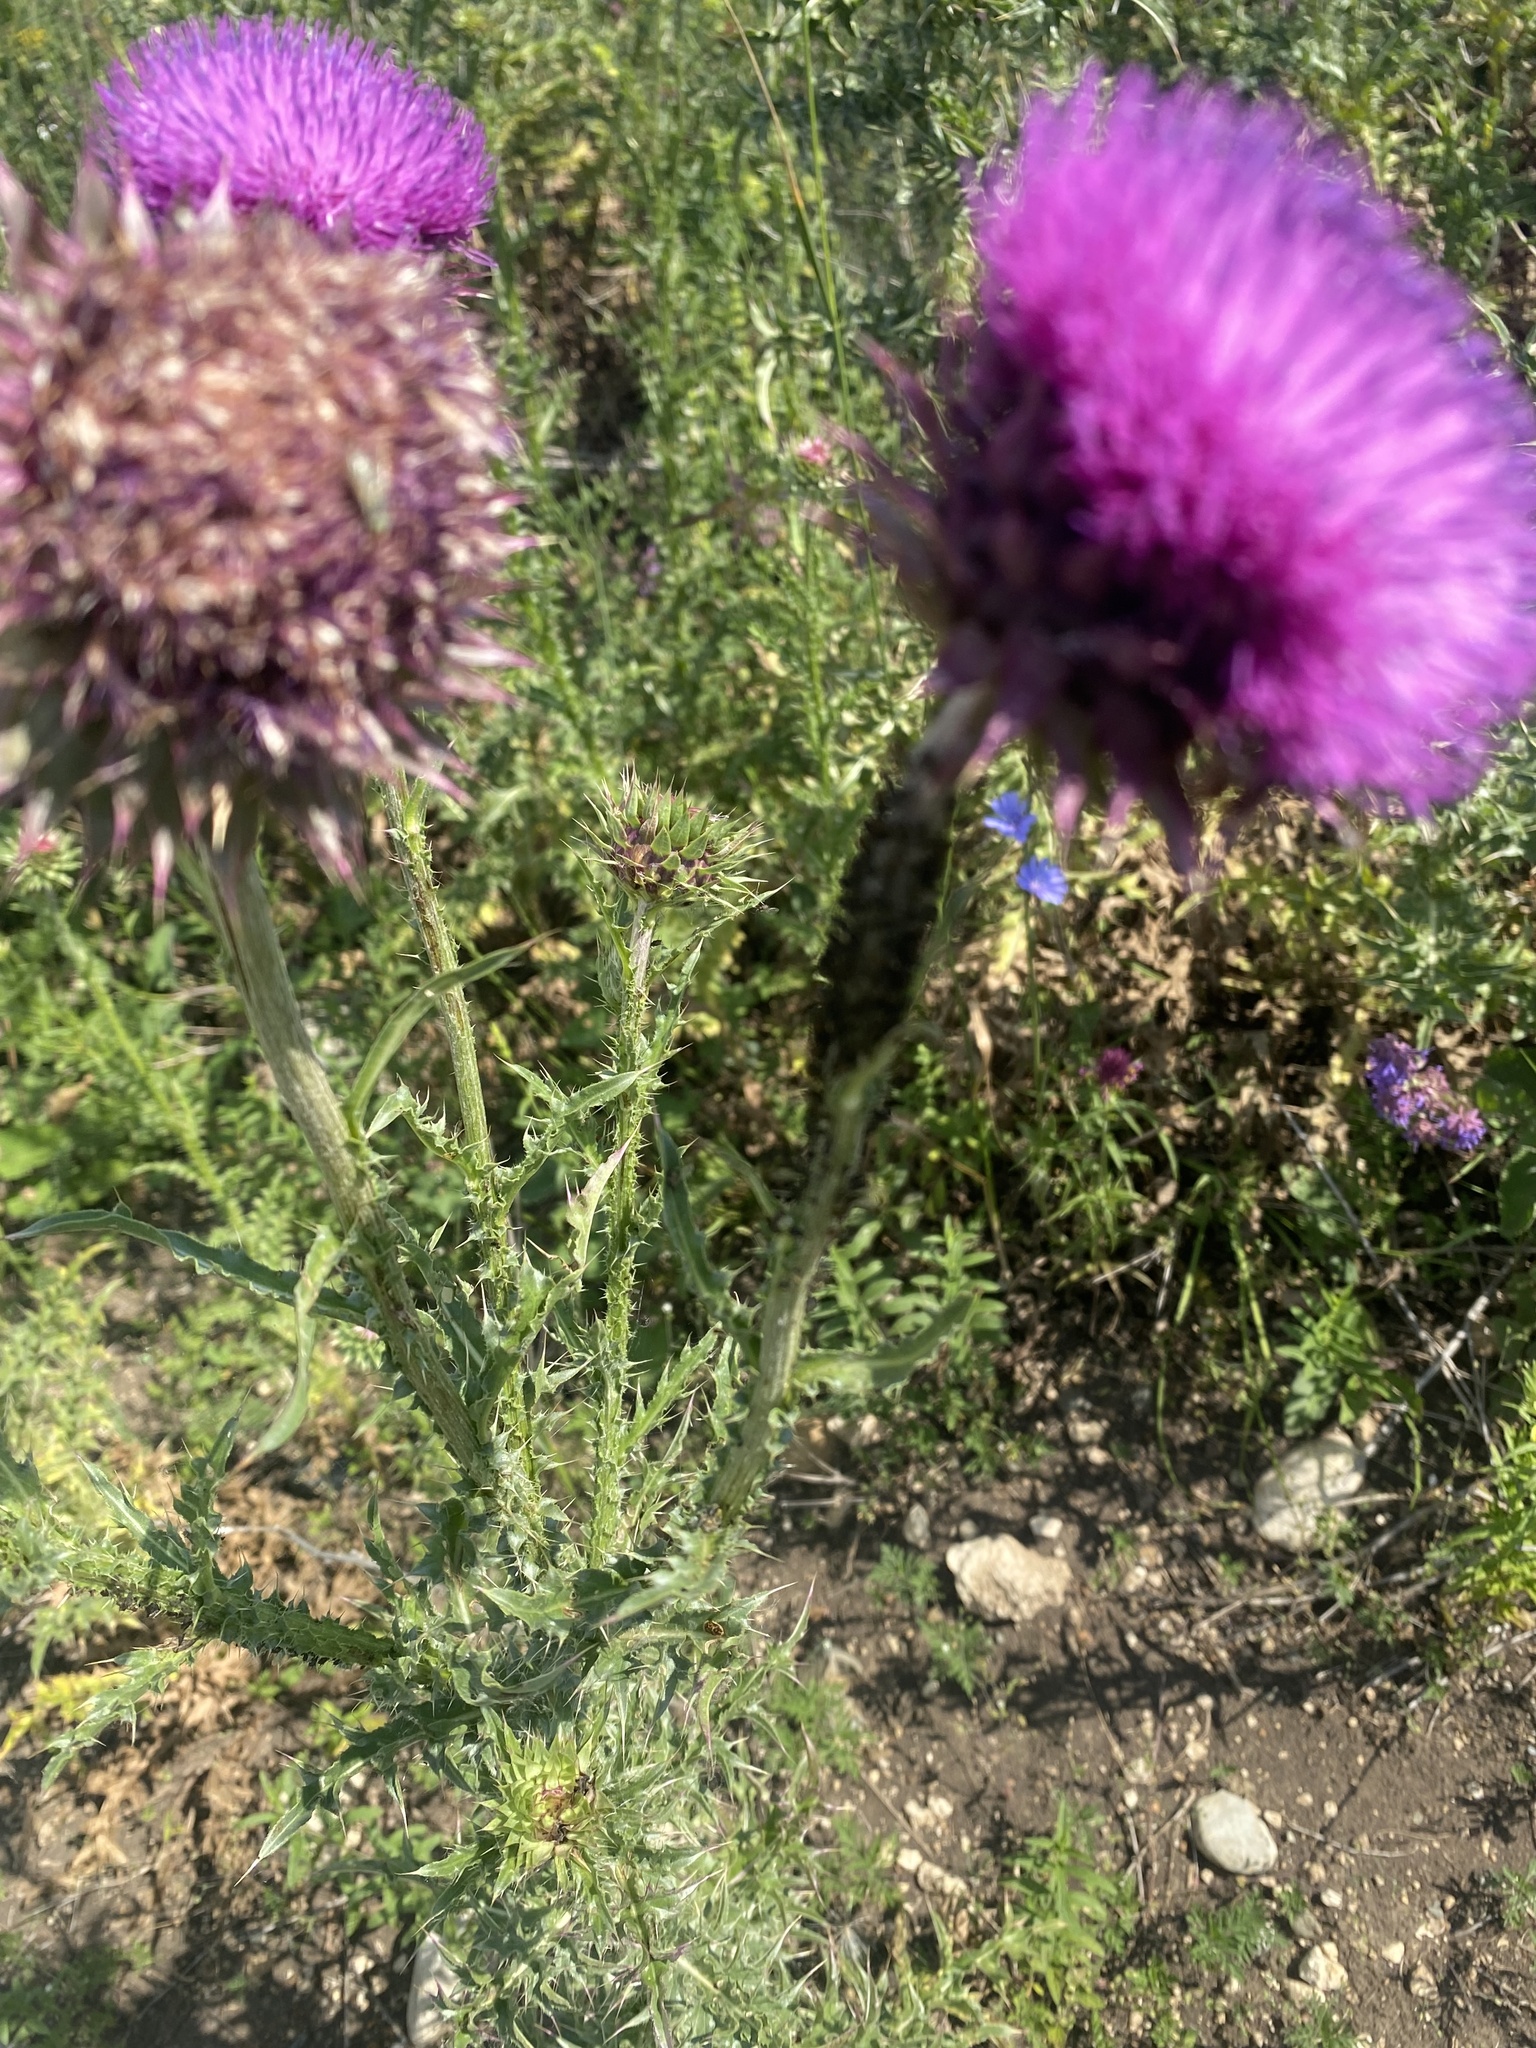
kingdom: Plantae
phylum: Tracheophyta
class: Magnoliopsida
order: Asterales
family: Asteraceae
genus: Carduus
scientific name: Carduus nutans
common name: Musk thistle
